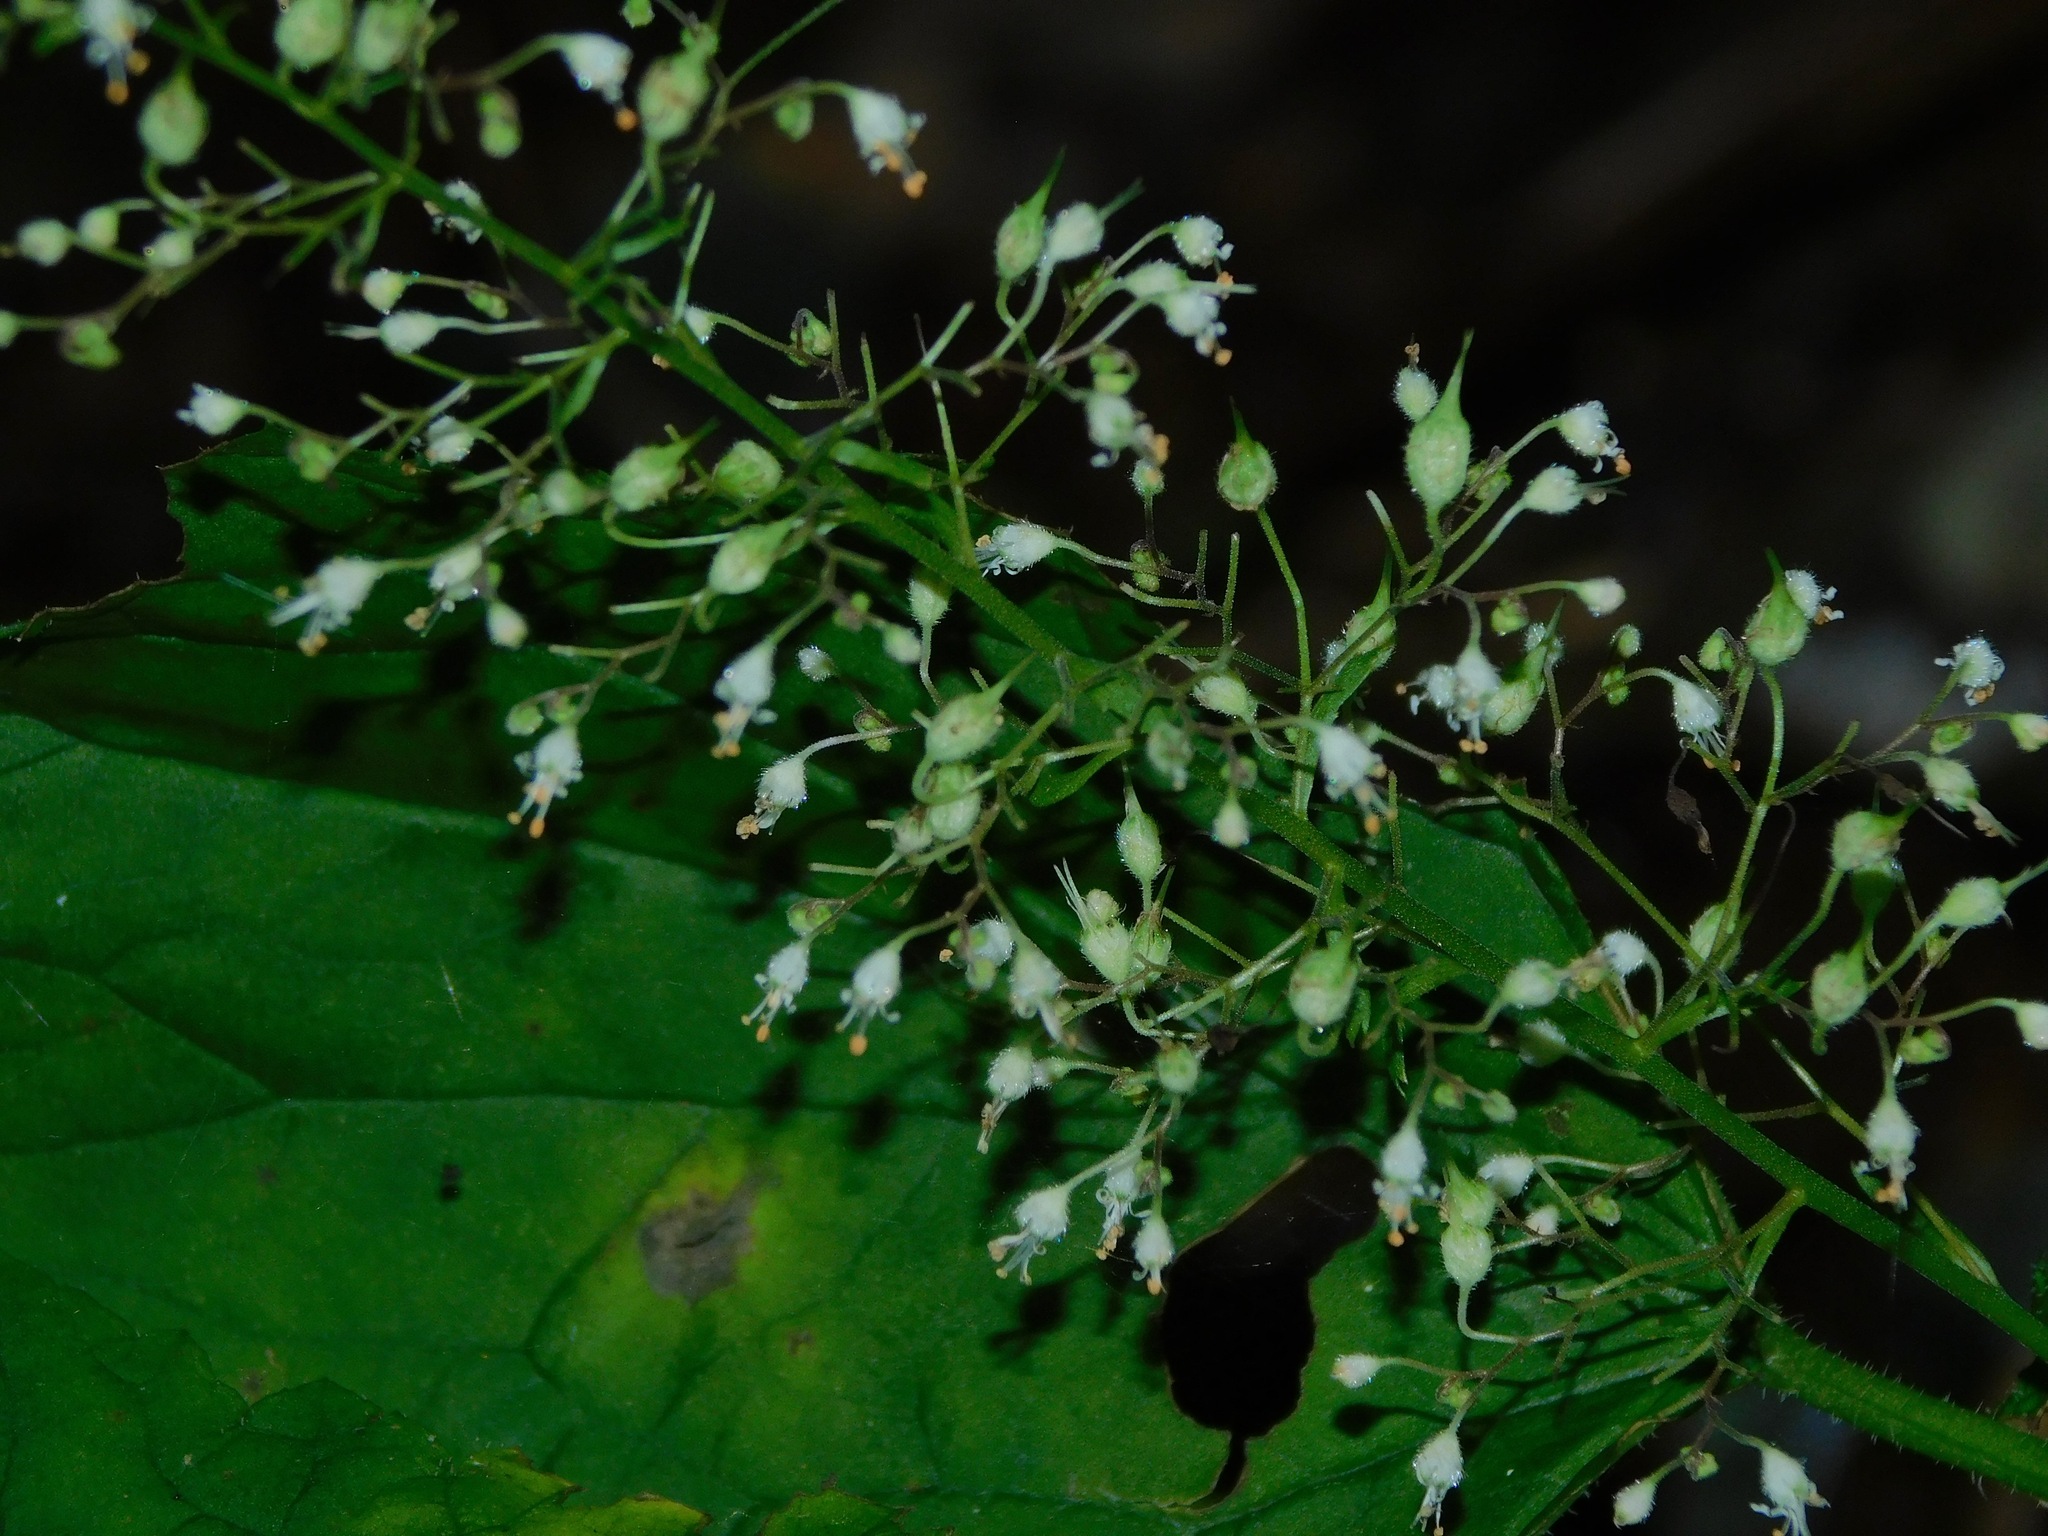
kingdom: Plantae
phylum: Tracheophyta
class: Magnoliopsida
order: Saxifragales
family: Saxifragaceae
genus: Heuchera
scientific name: Heuchera villosa
